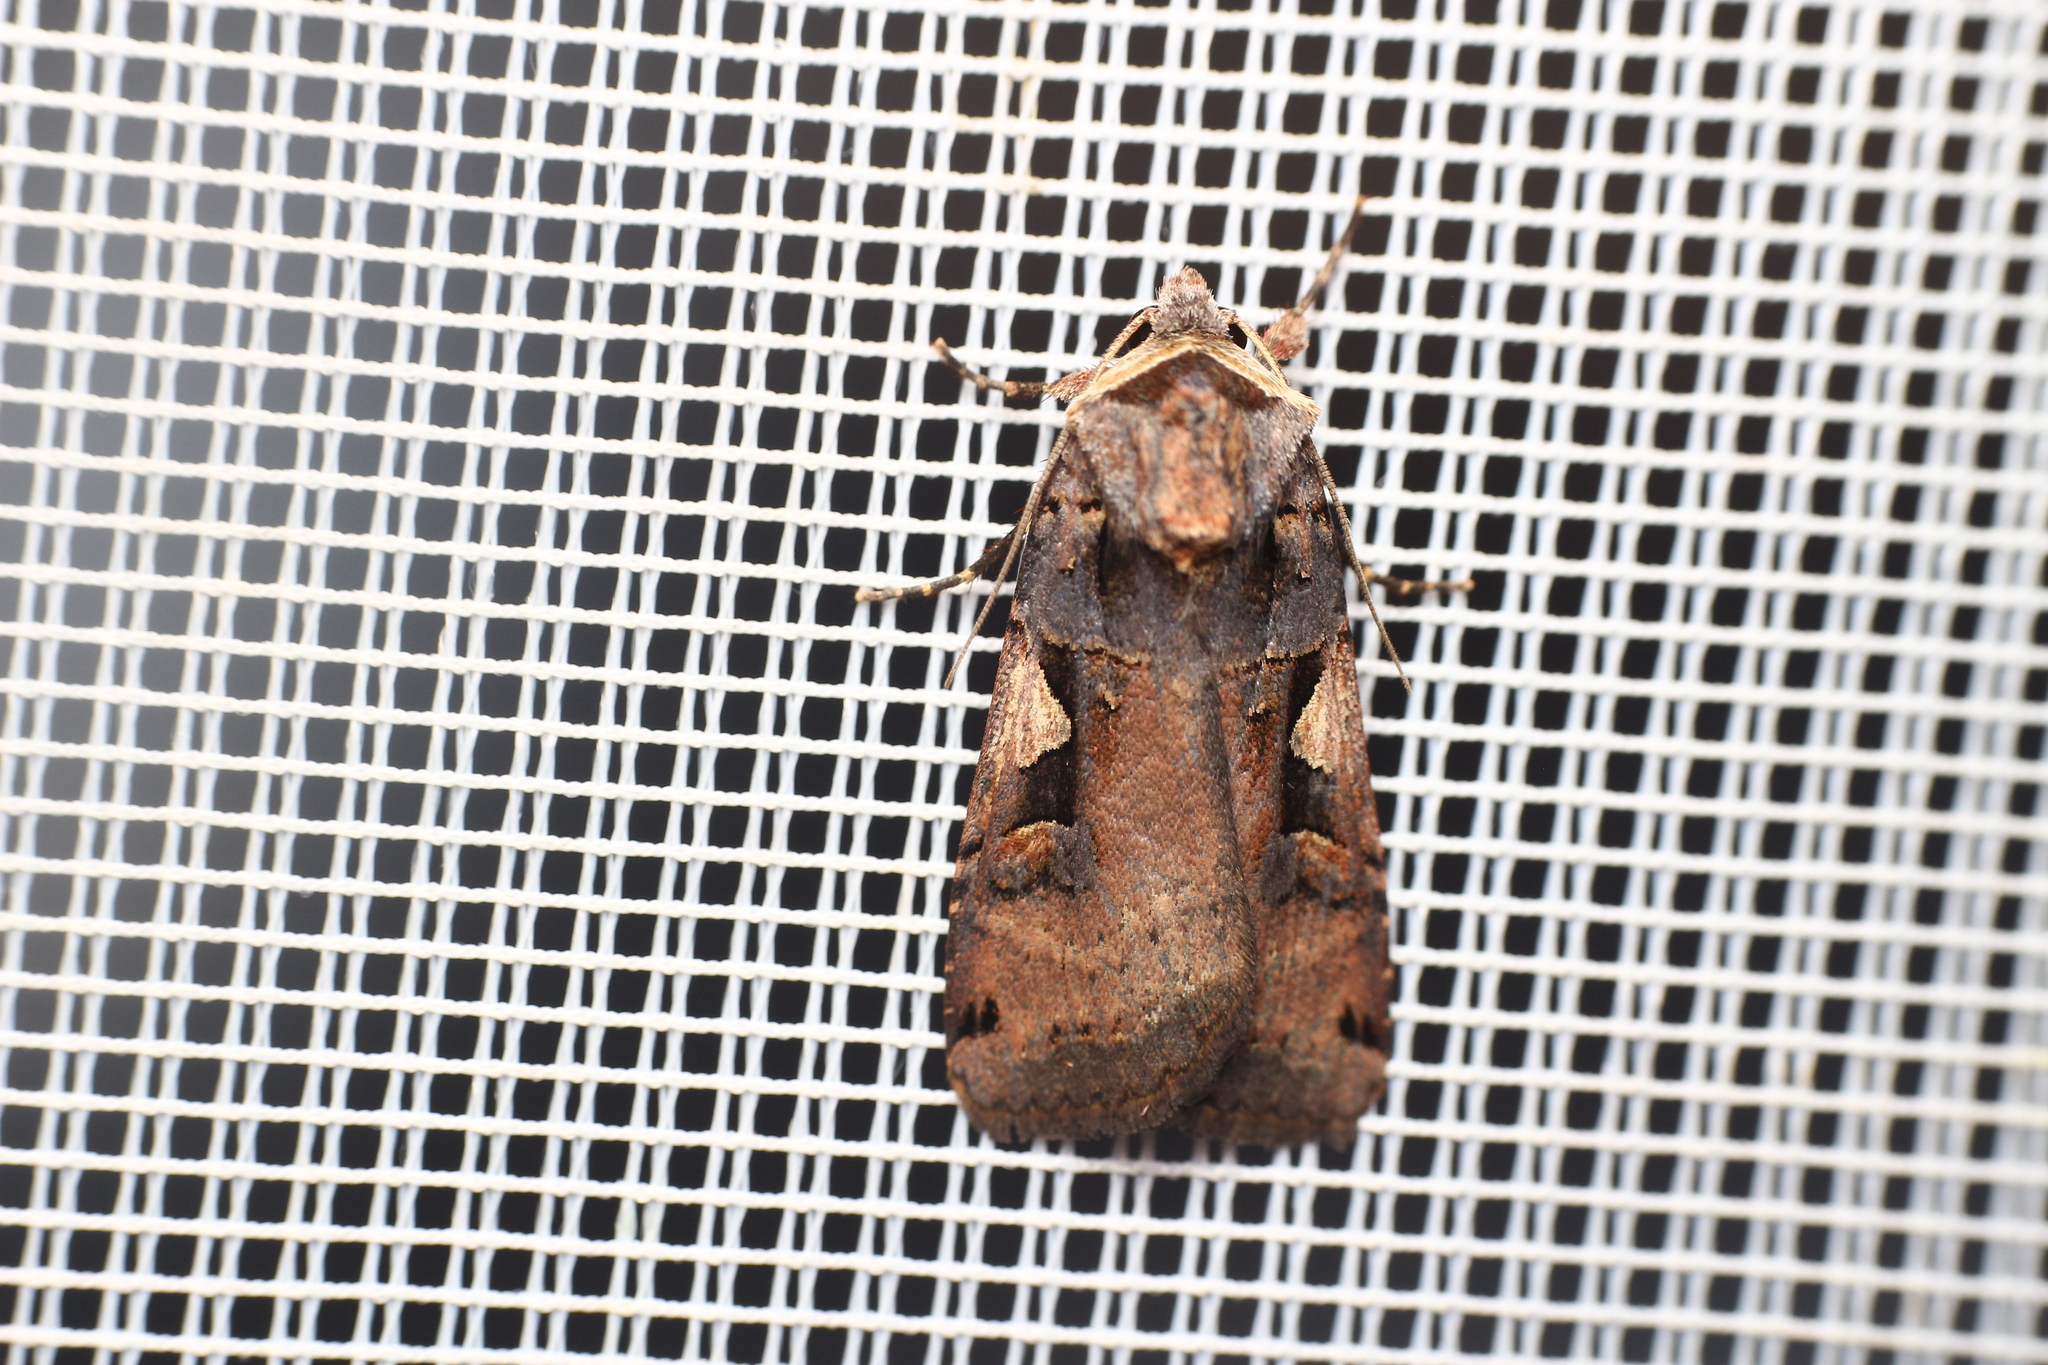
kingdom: Animalia
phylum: Arthropoda
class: Insecta
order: Lepidoptera
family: Noctuidae
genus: Xestia
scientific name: Xestia c-nigrum
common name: Setaceous hebrew character
